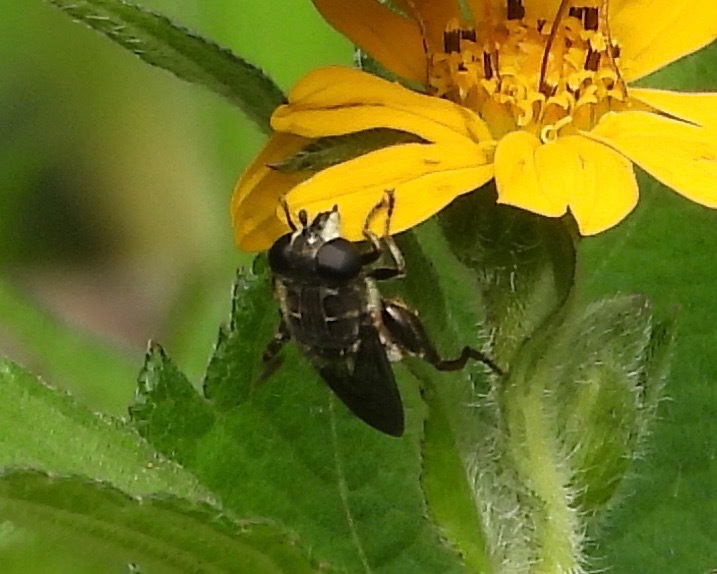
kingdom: Animalia
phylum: Arthropoda
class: Insecta
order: Diptera
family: Syrphidae
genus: Asemosyrphus
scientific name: Asemosyrphus
